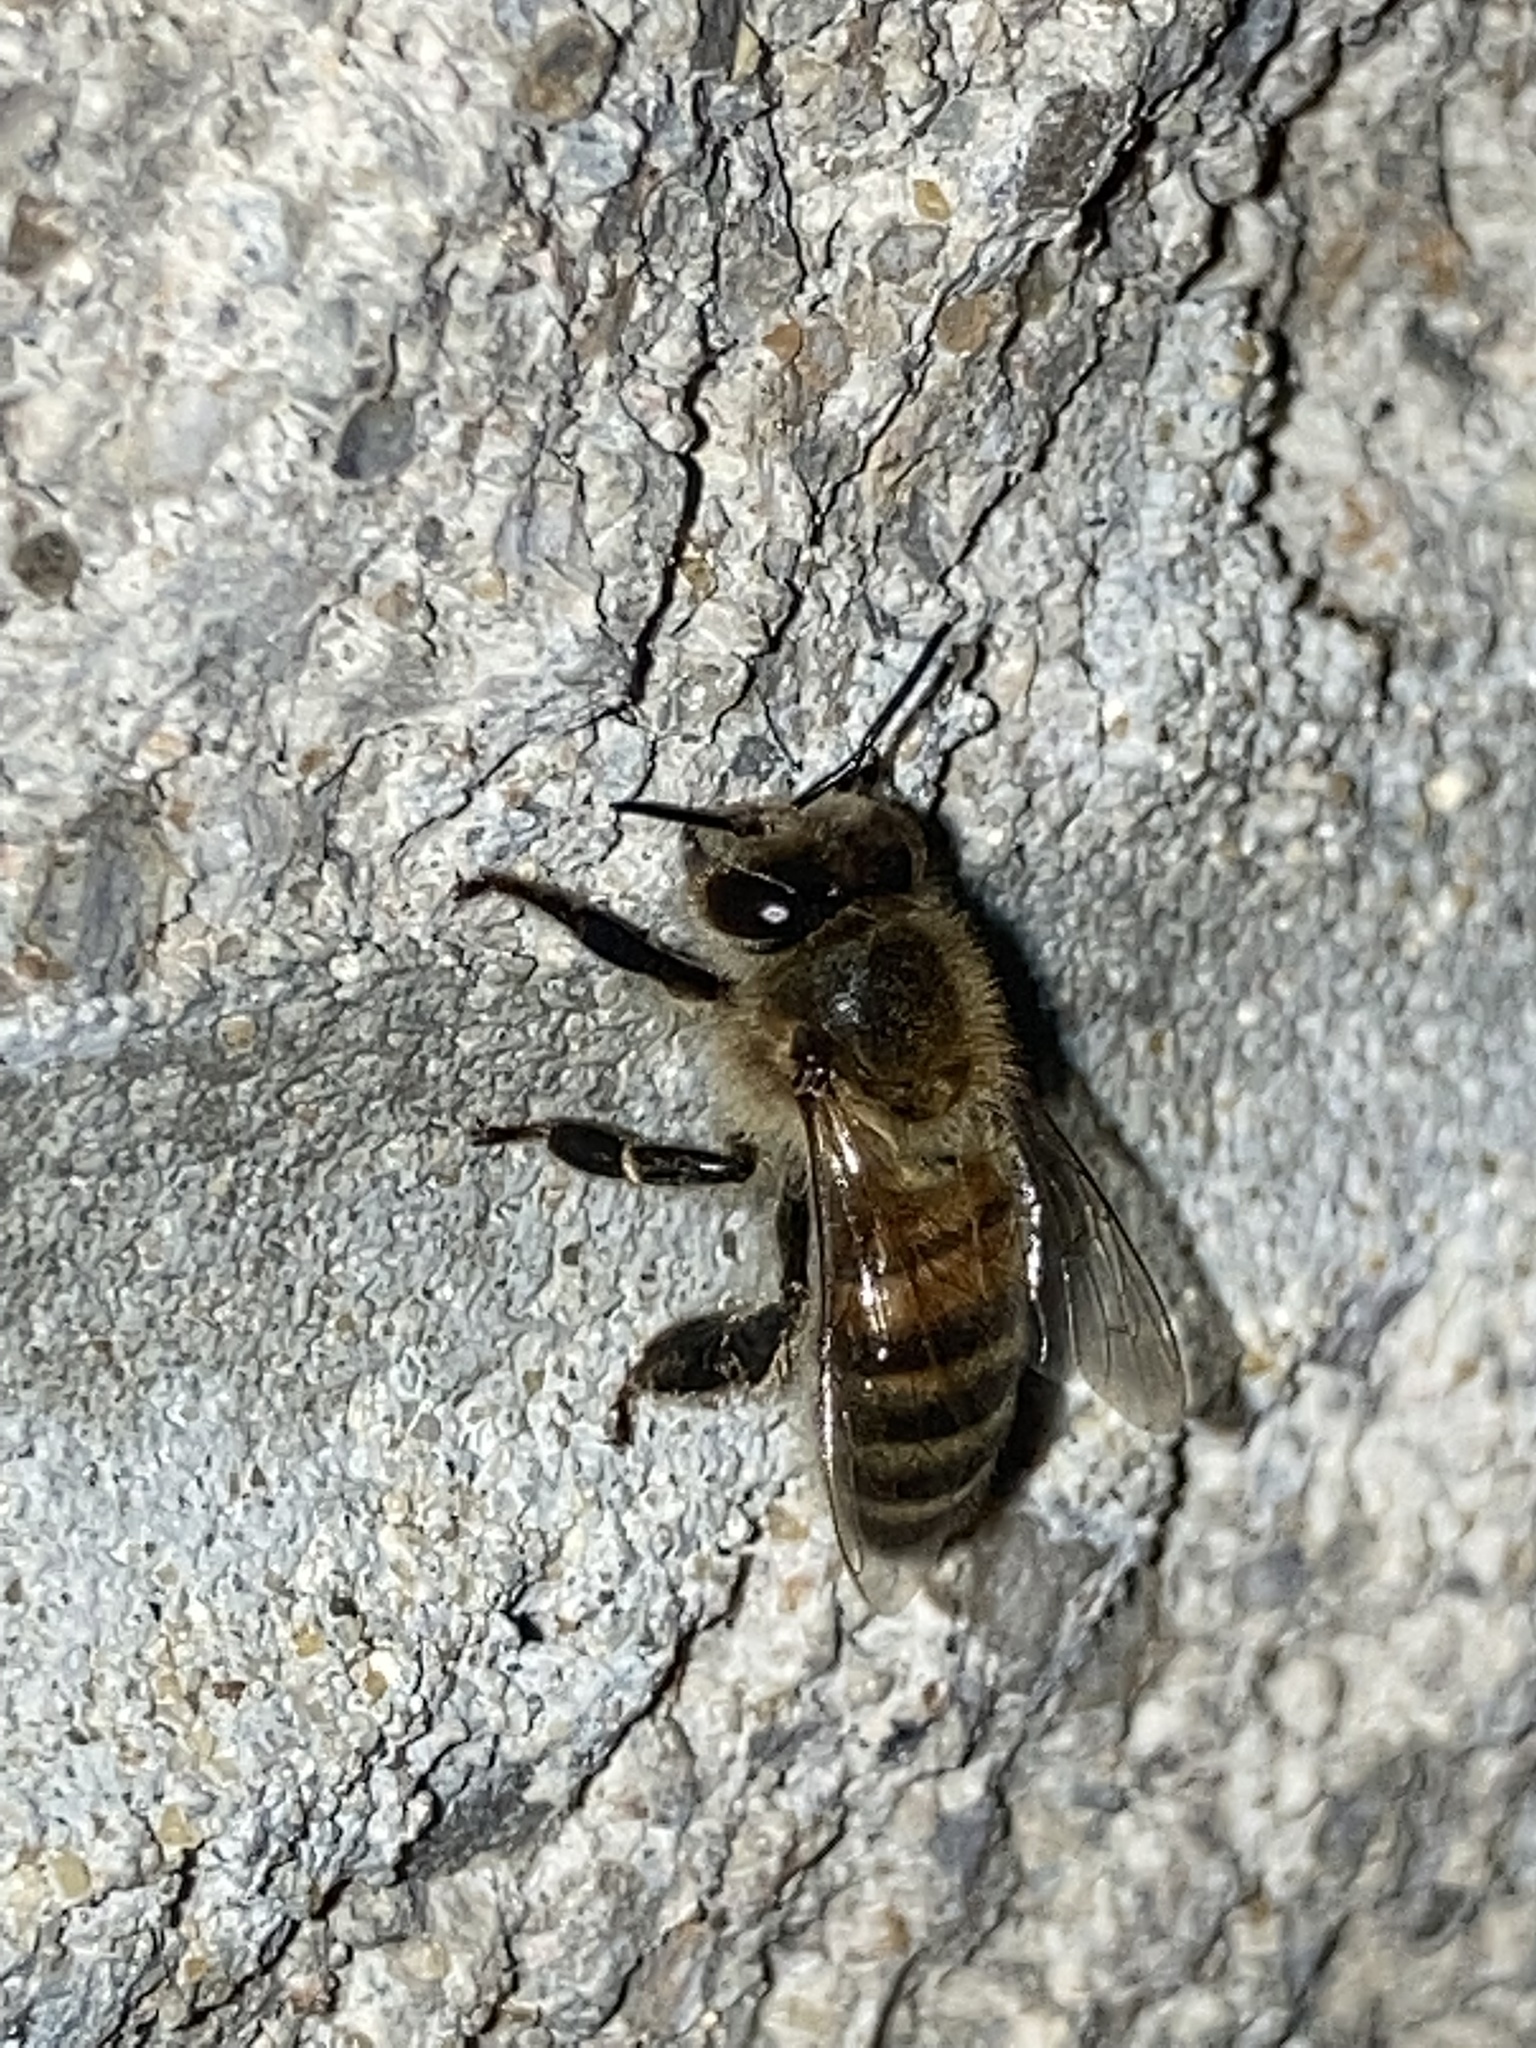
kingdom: Animalia
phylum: Arthropoda
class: Insecta
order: Hymenoptera
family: Apidae
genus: Apis
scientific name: Apis mellifera
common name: Honey bee
